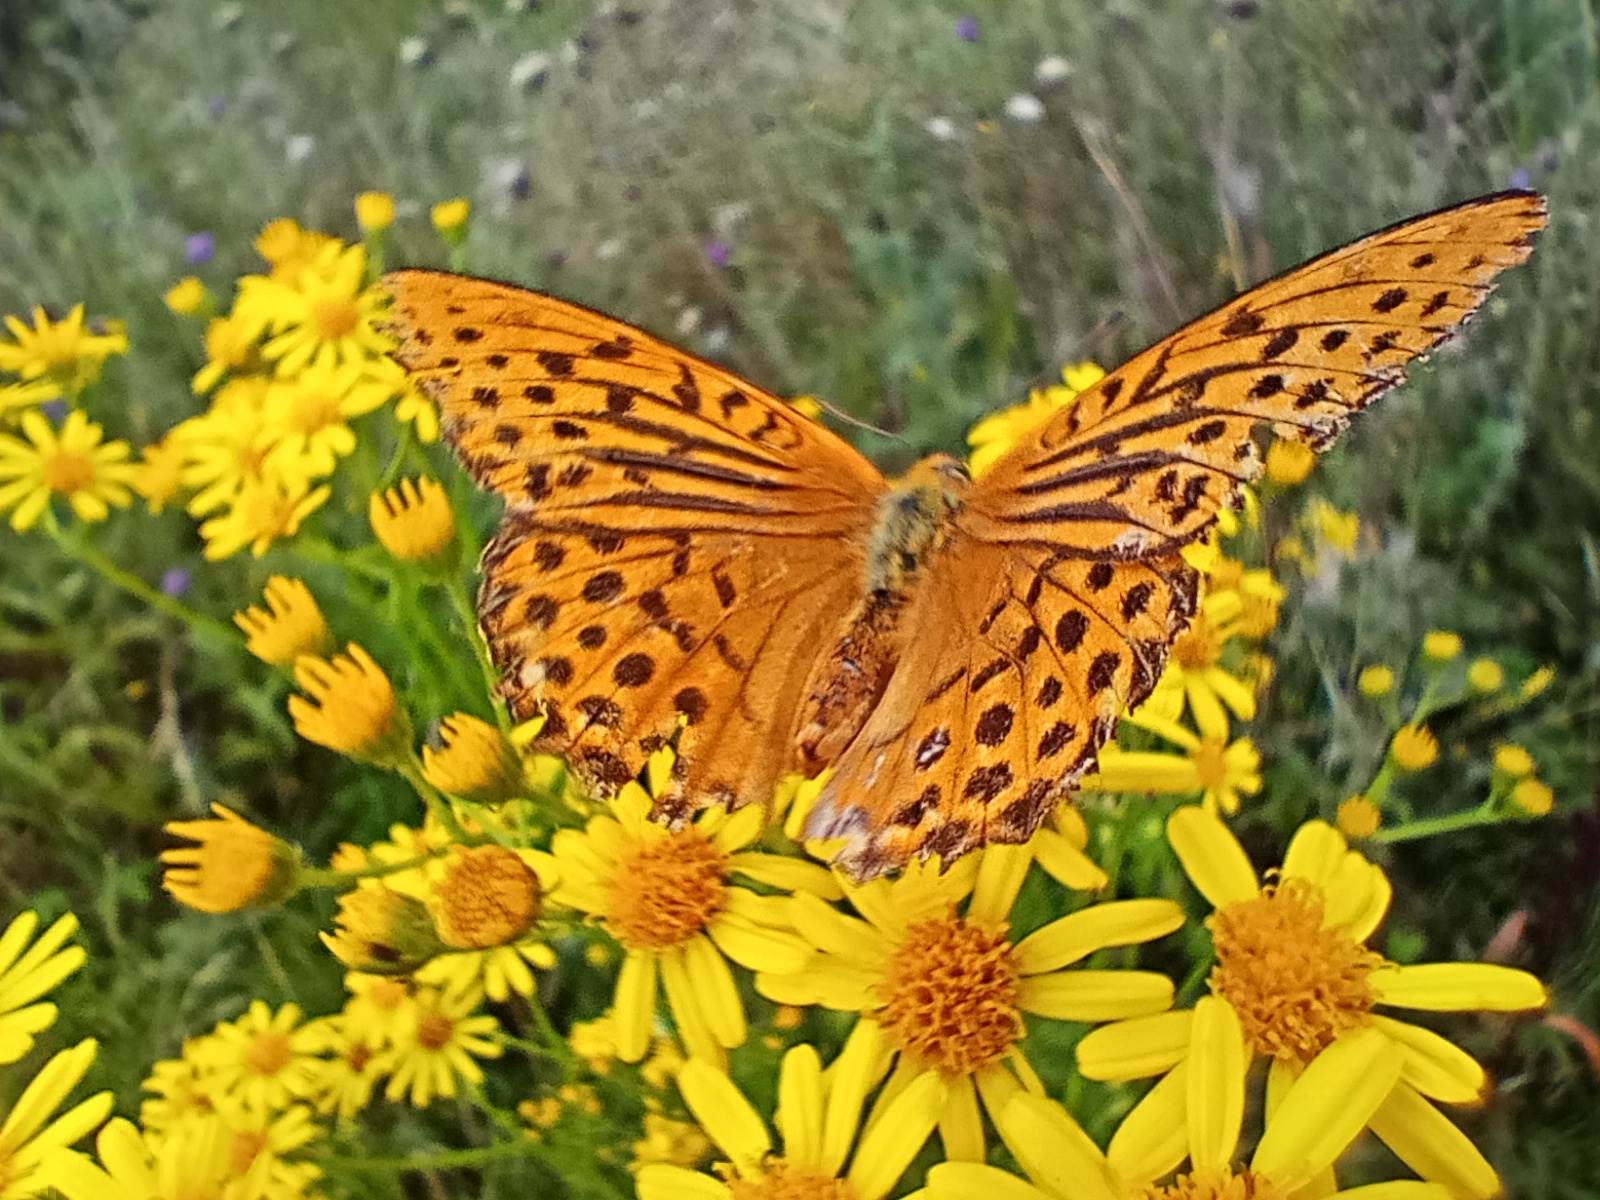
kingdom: Animalia
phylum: Arthropoda
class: Insecta
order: Lepidoptera
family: Nymphalidae
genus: Argynnis
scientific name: Argynnis paphia
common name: Silver-washed fritillary
